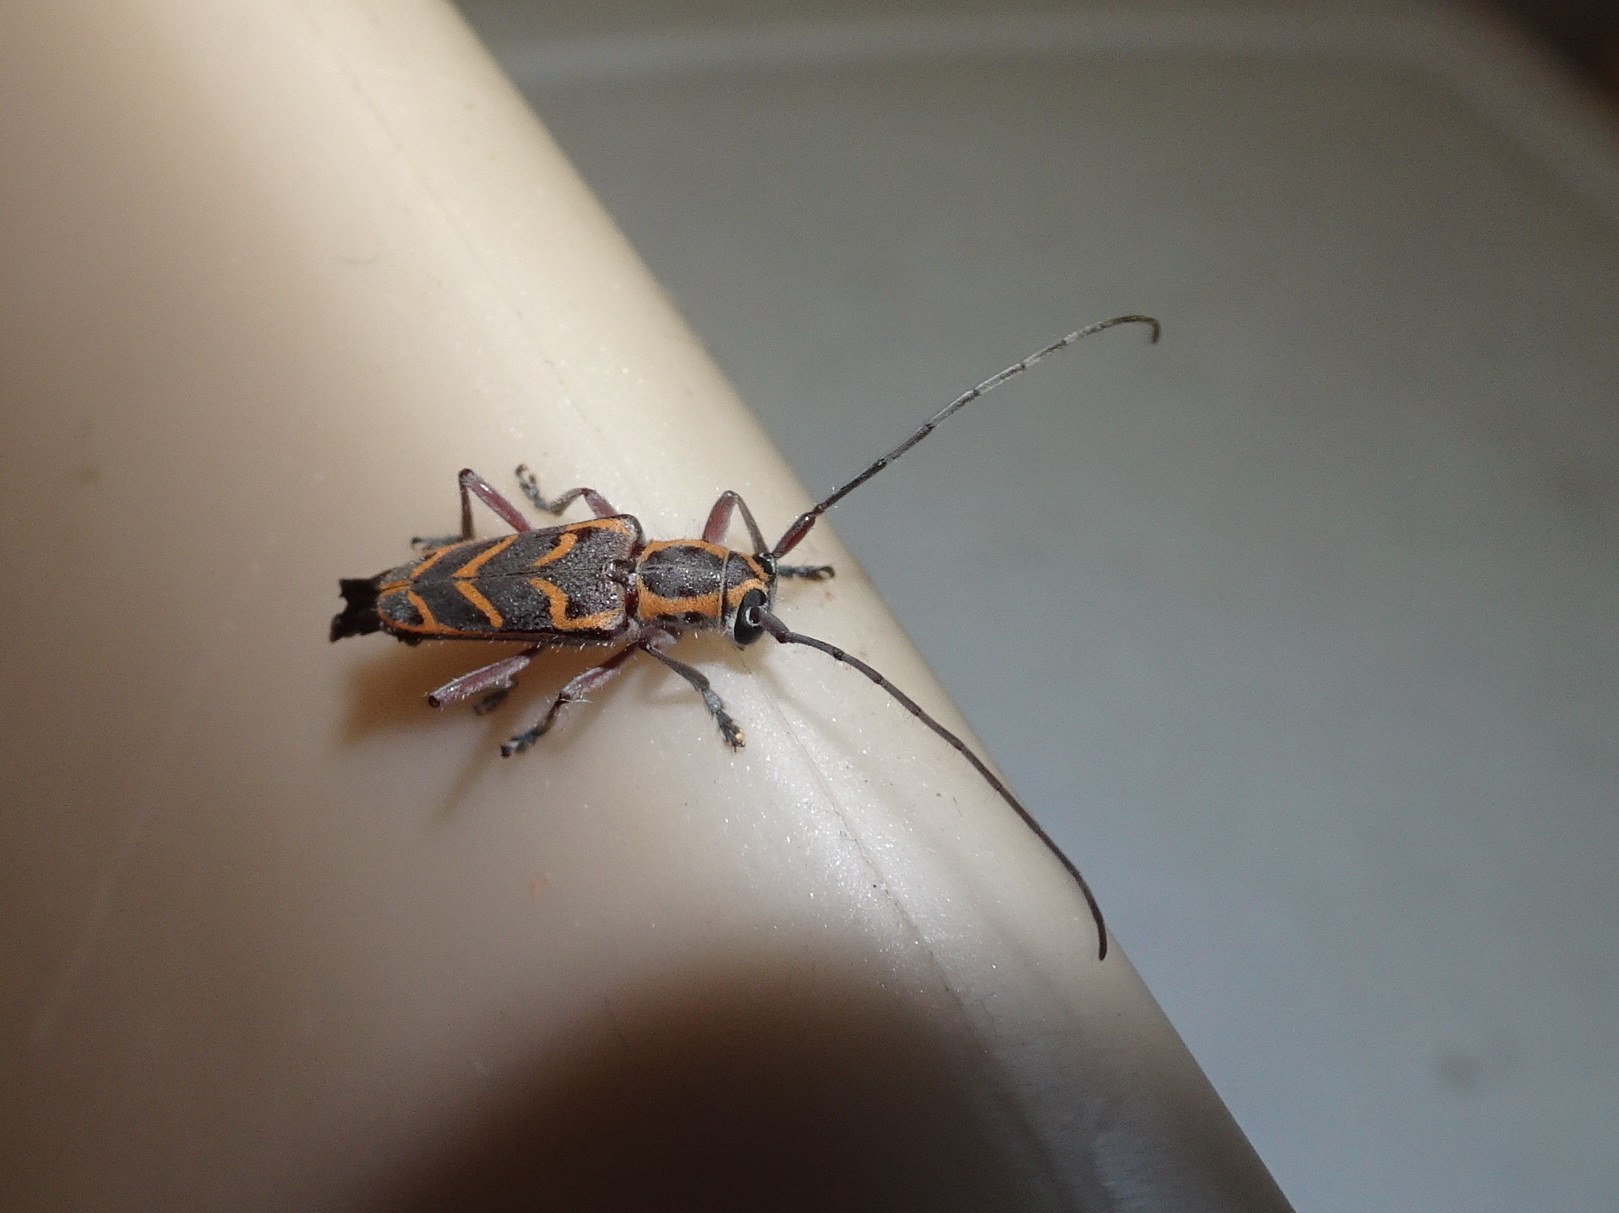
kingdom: Animalia
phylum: Arthropoda
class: Insecta
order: Coleoptera
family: Cerambycidae
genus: Saperda
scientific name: Saperda tridentata
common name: Elm borer
